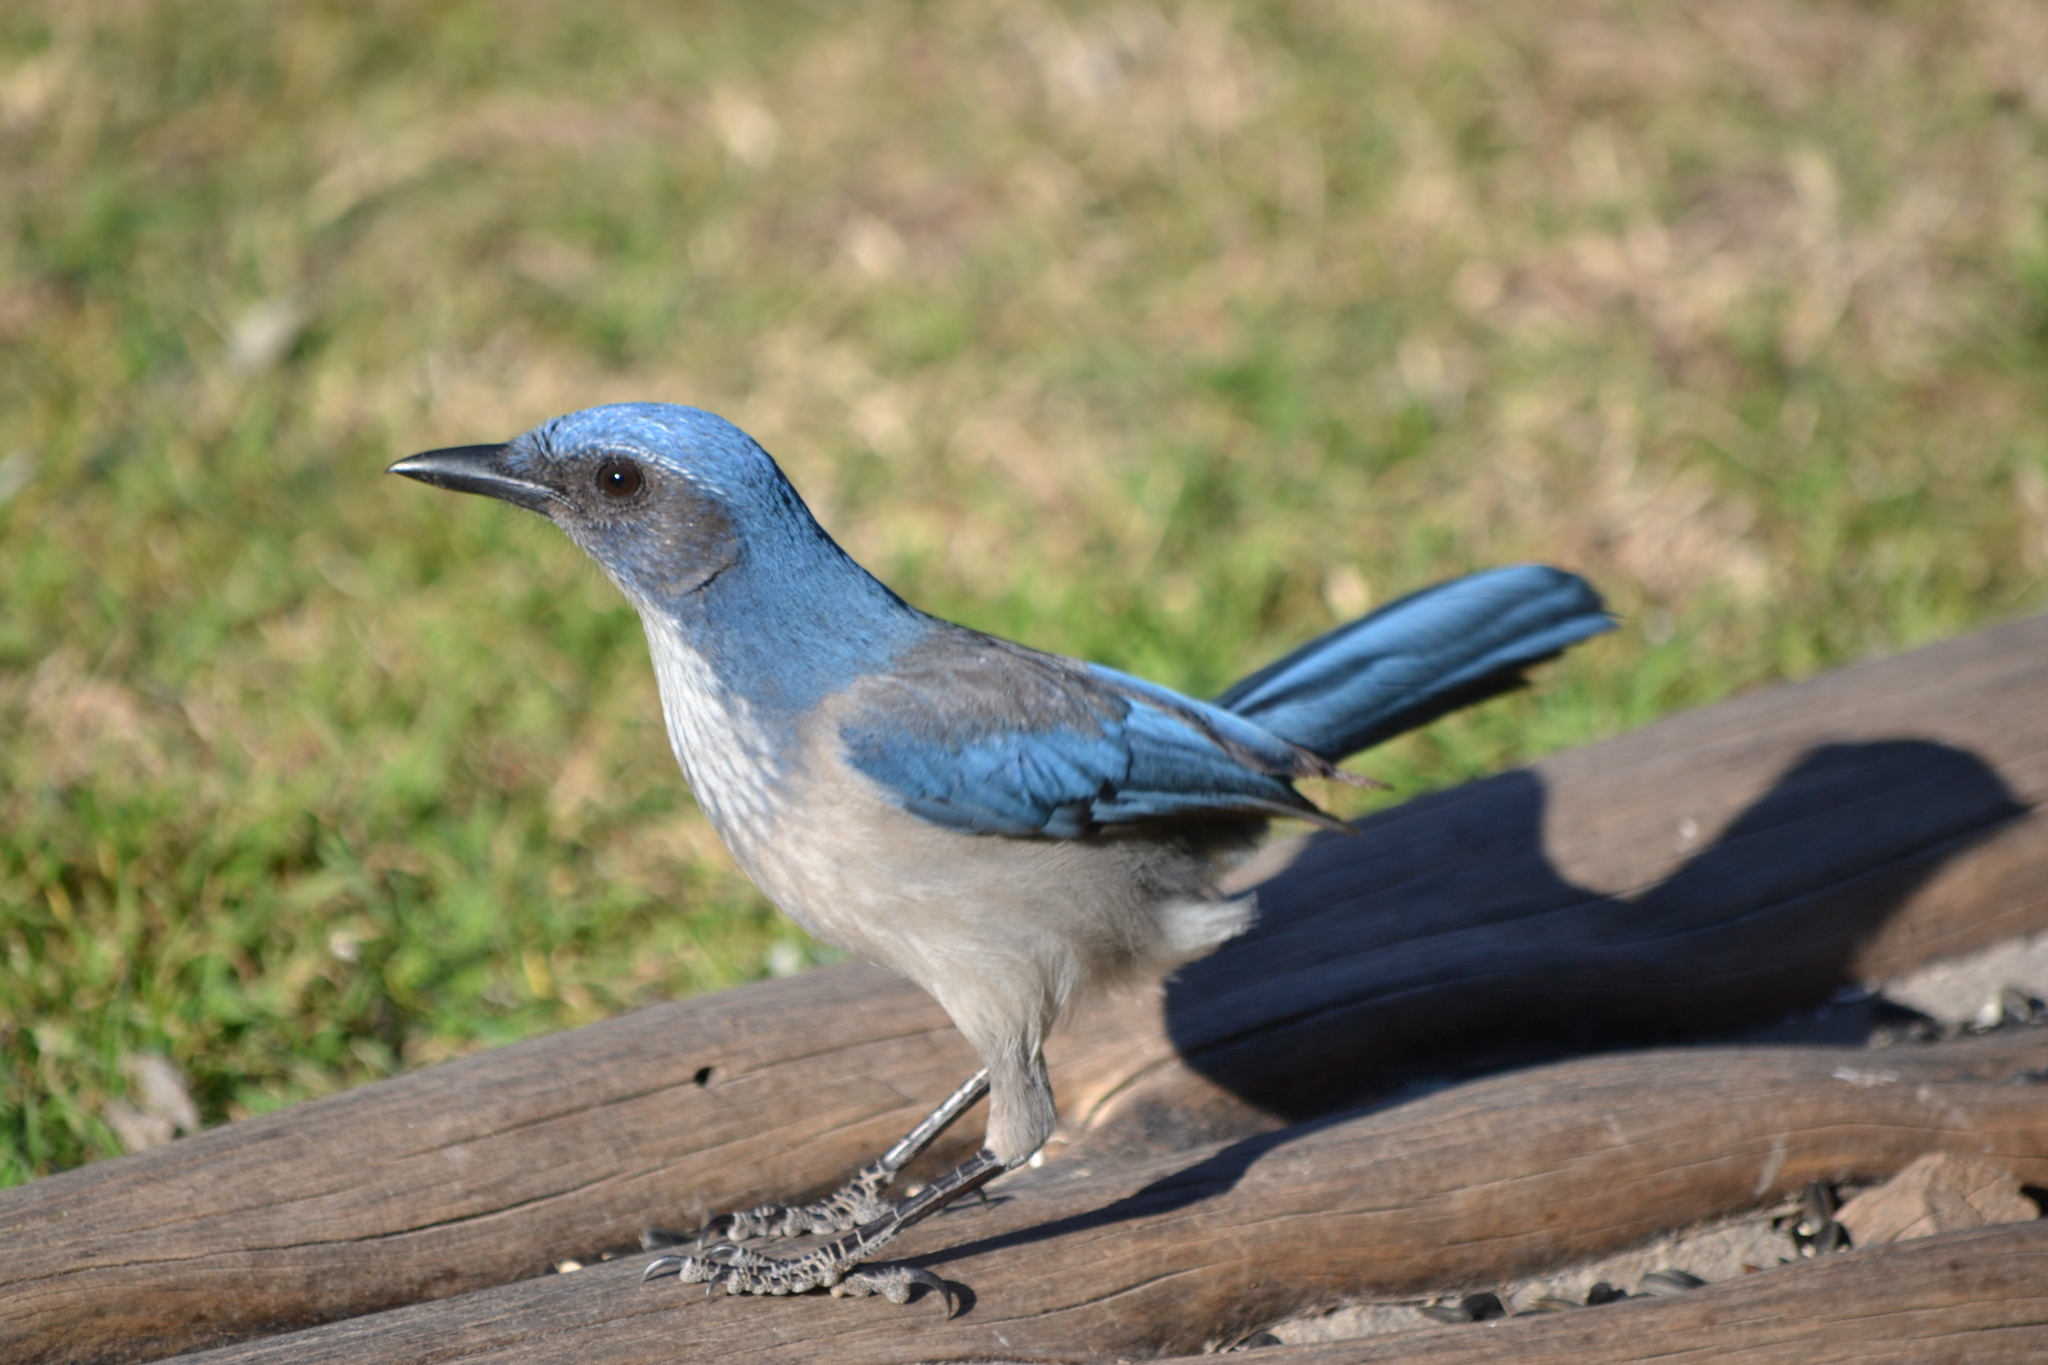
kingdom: Animalia
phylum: Chordata
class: Aves
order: Passeriformes
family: Corvidae
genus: Aphelocoma
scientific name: Aphelocoma woodhouseii
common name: Woodhouse's scrub-jay
